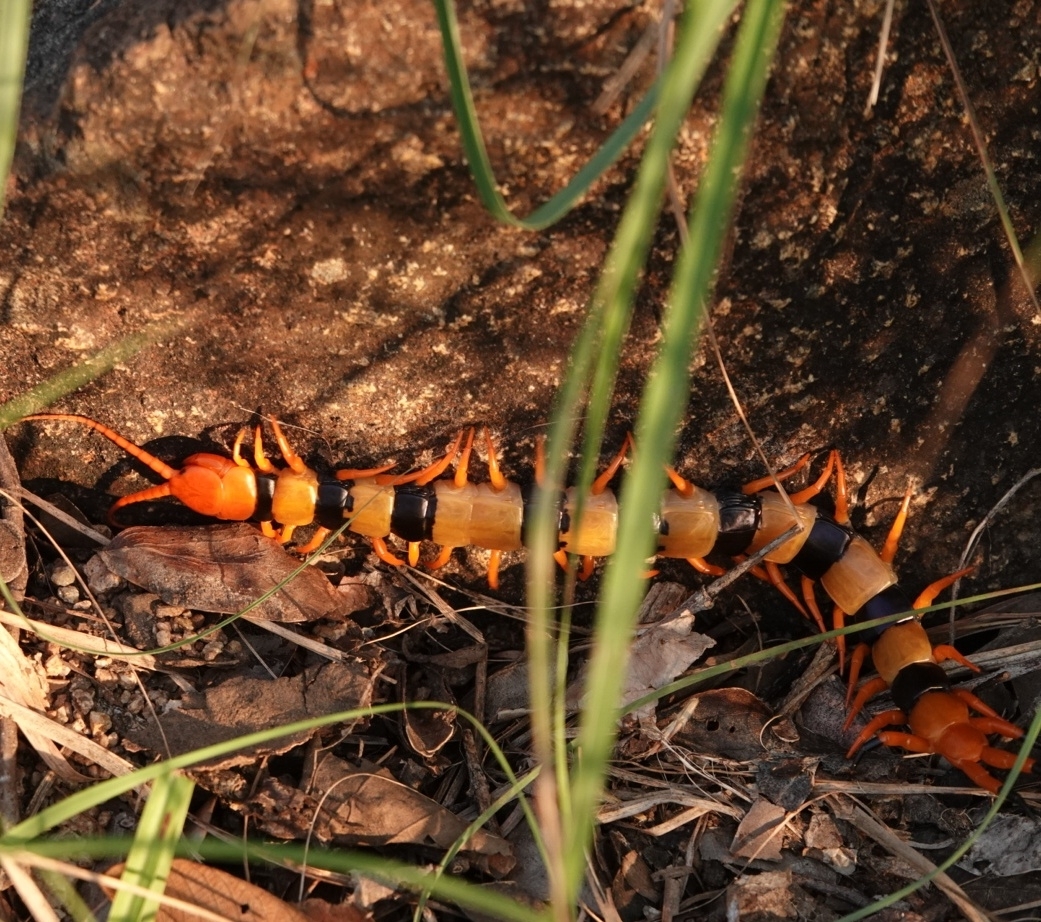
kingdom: Animalia
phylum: Arthropoda
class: Chilopoda
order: Scolopendromorpha
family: Scolopendridae
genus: Scolopendra
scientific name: Scolopendra hardwickei
